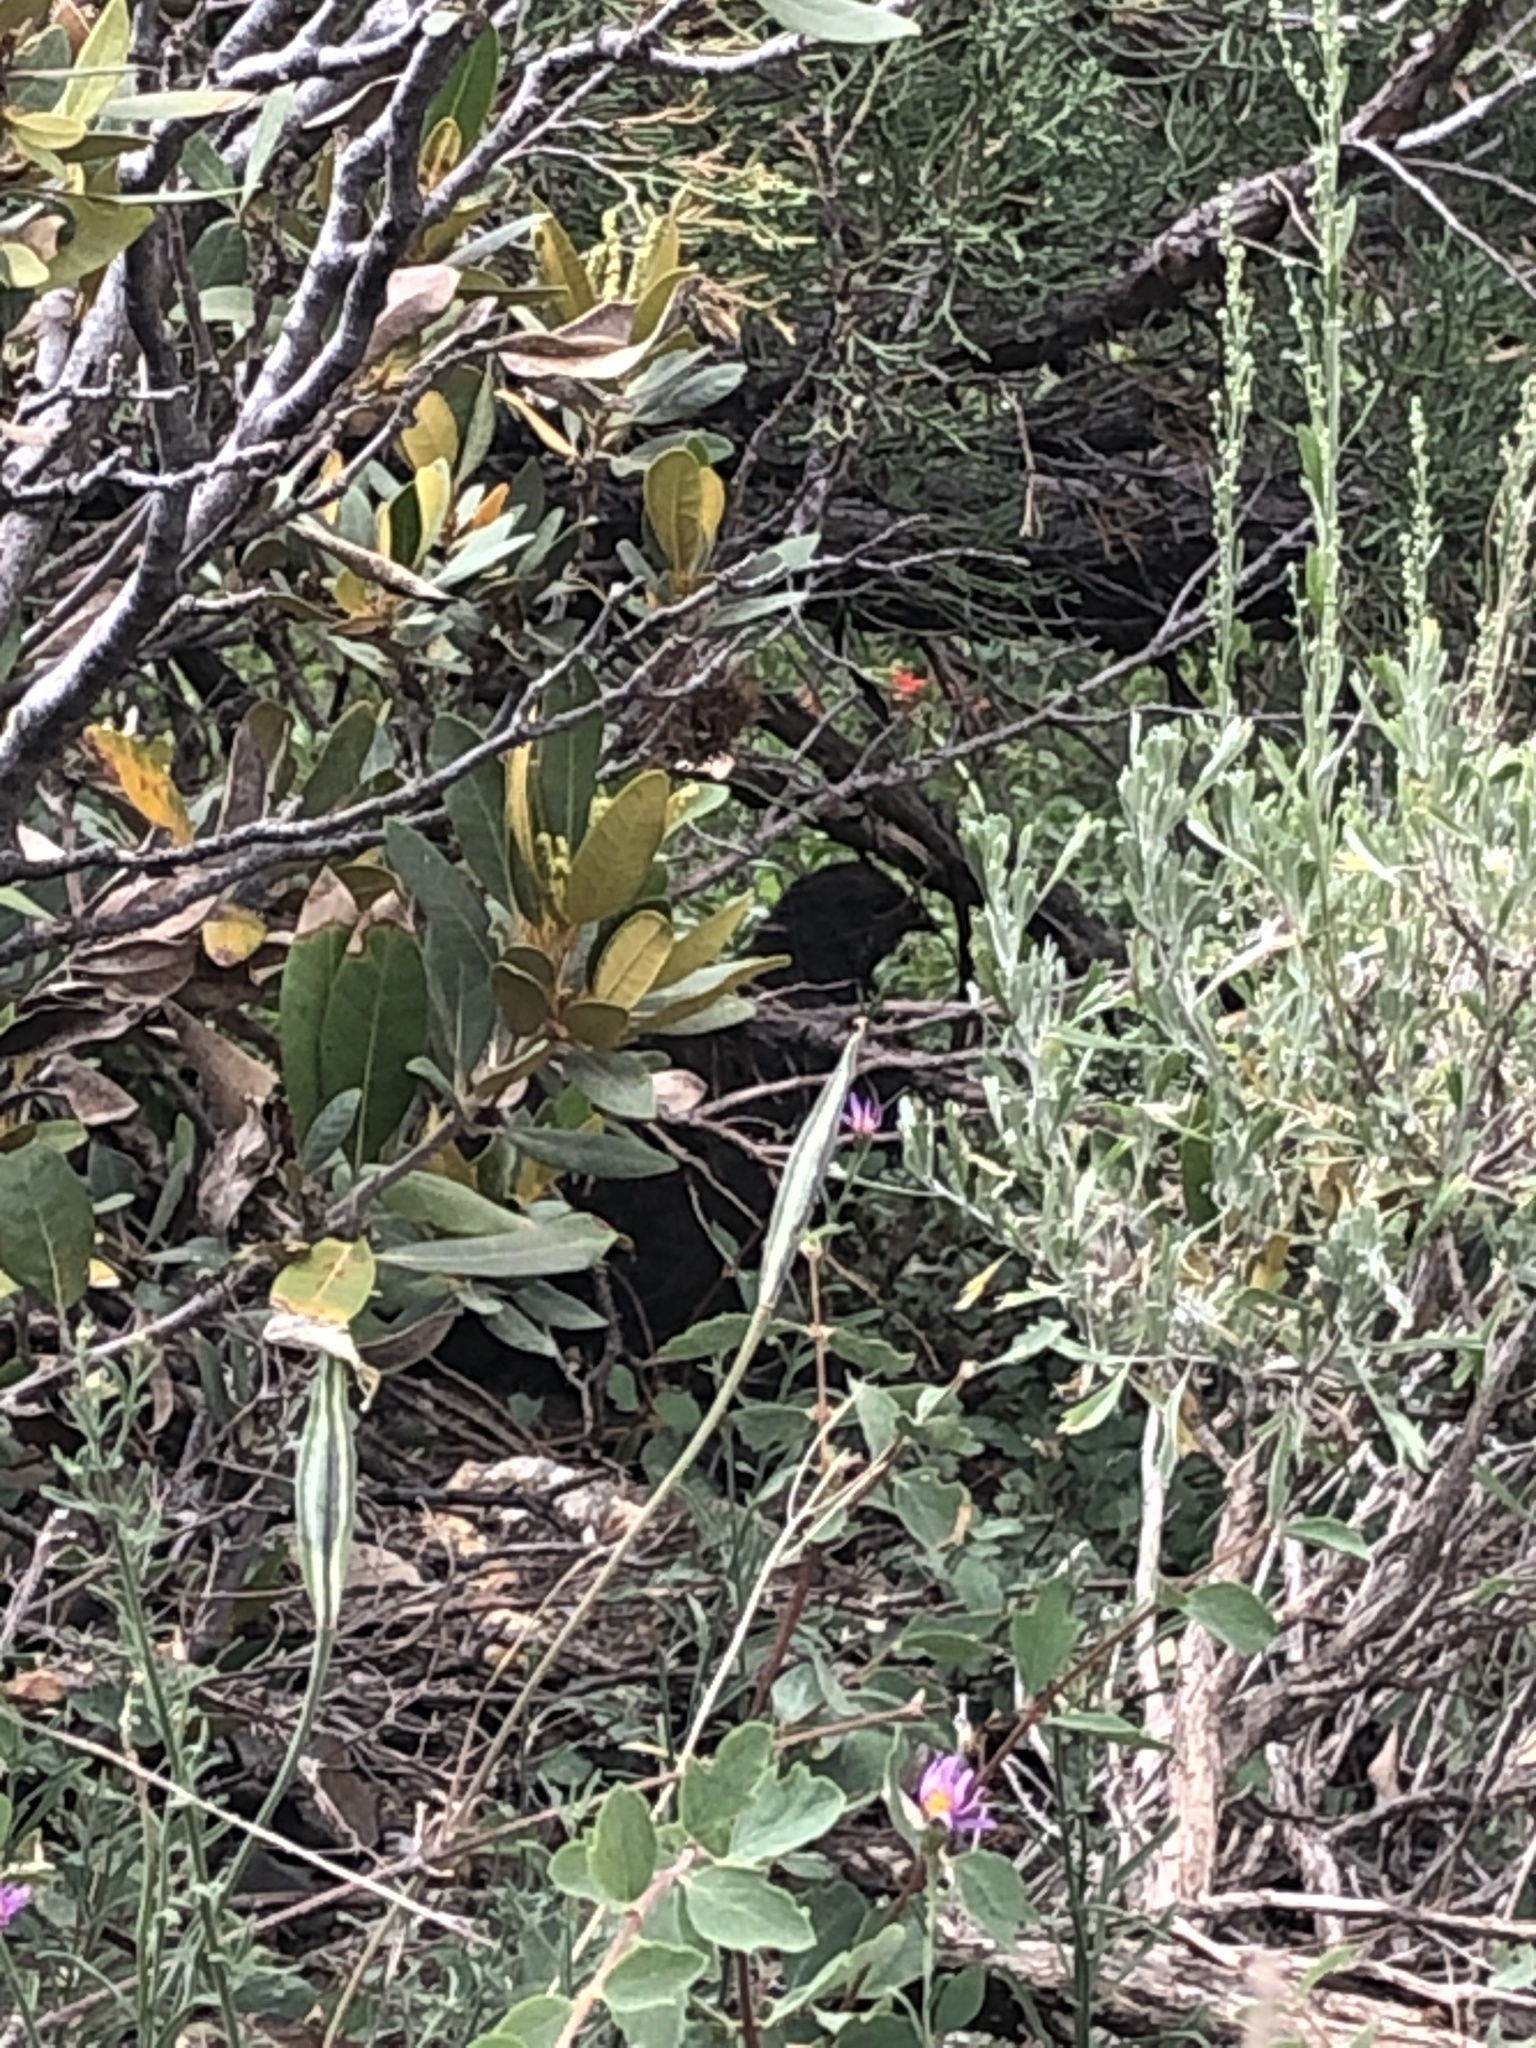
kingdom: Animalia
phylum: Chordata
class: Aves
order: Galliformes
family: Phasianidae
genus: Dendragapus
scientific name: Dendragapus fuliginosus
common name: Sooty grouse
